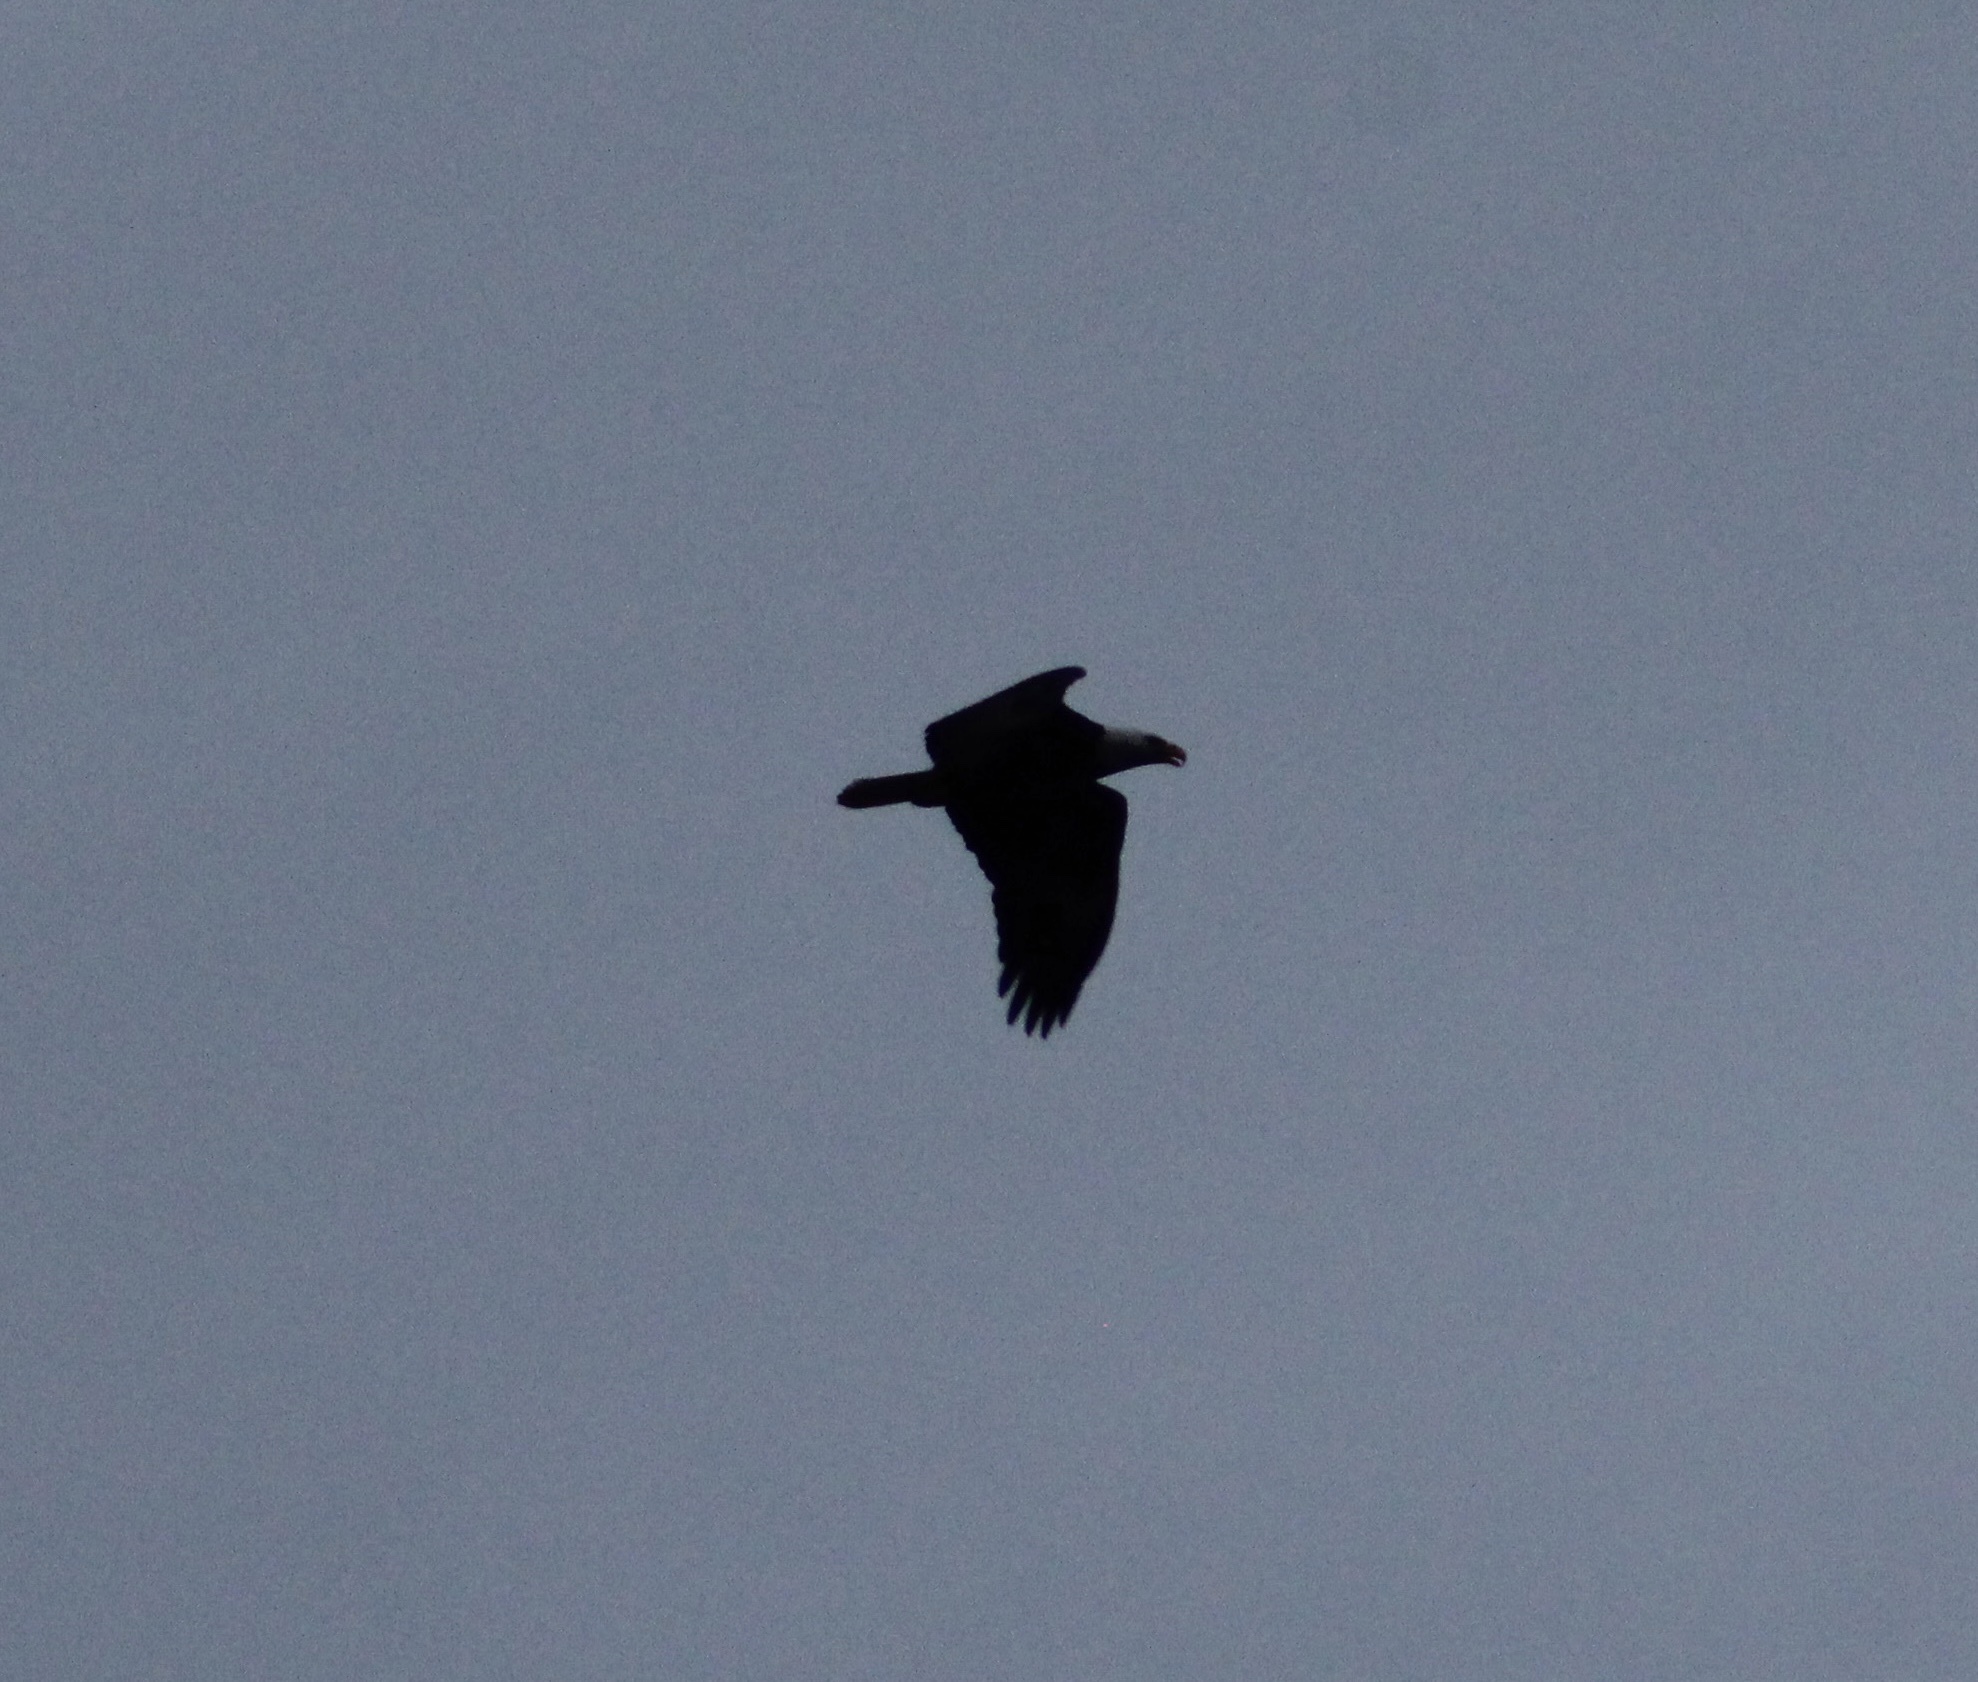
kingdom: Animalia
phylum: Chordata
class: Aves
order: Accipitriformes
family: Accipitridae
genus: Haliaeetus
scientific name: Haliaeetus leucocephalus
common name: Bald eagle
